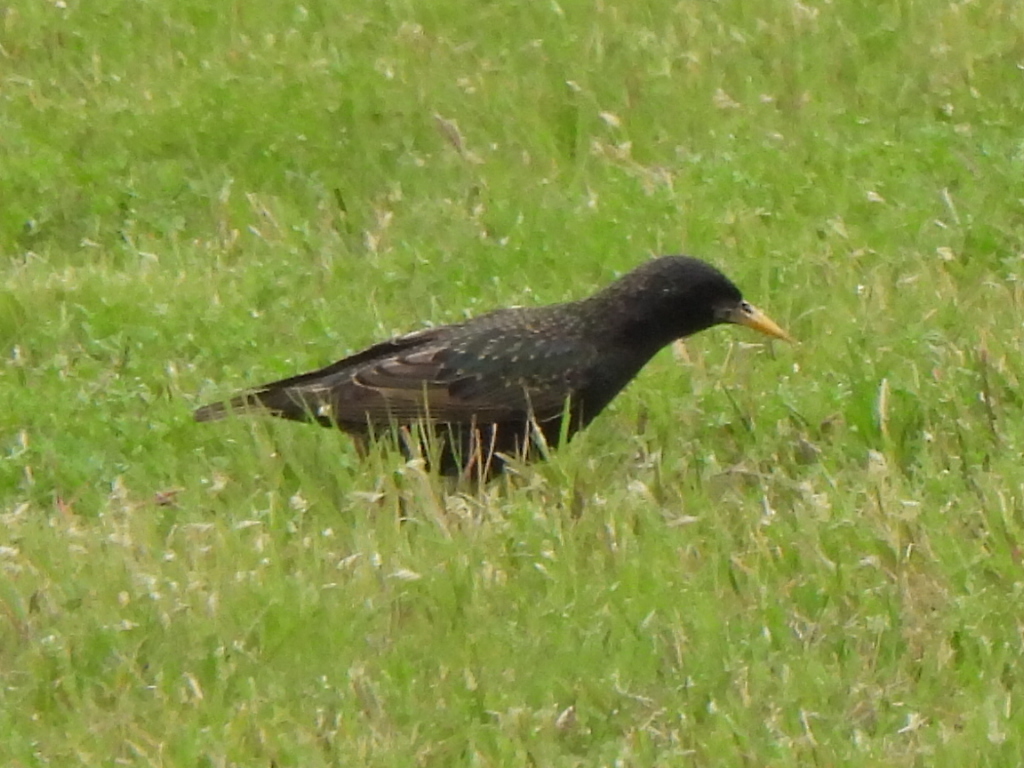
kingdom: Animalia
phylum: Chordata
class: Aves
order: Passeriformes
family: Sturnidae
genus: Sturnus
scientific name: Sturnus vulgaris
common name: Common starling
